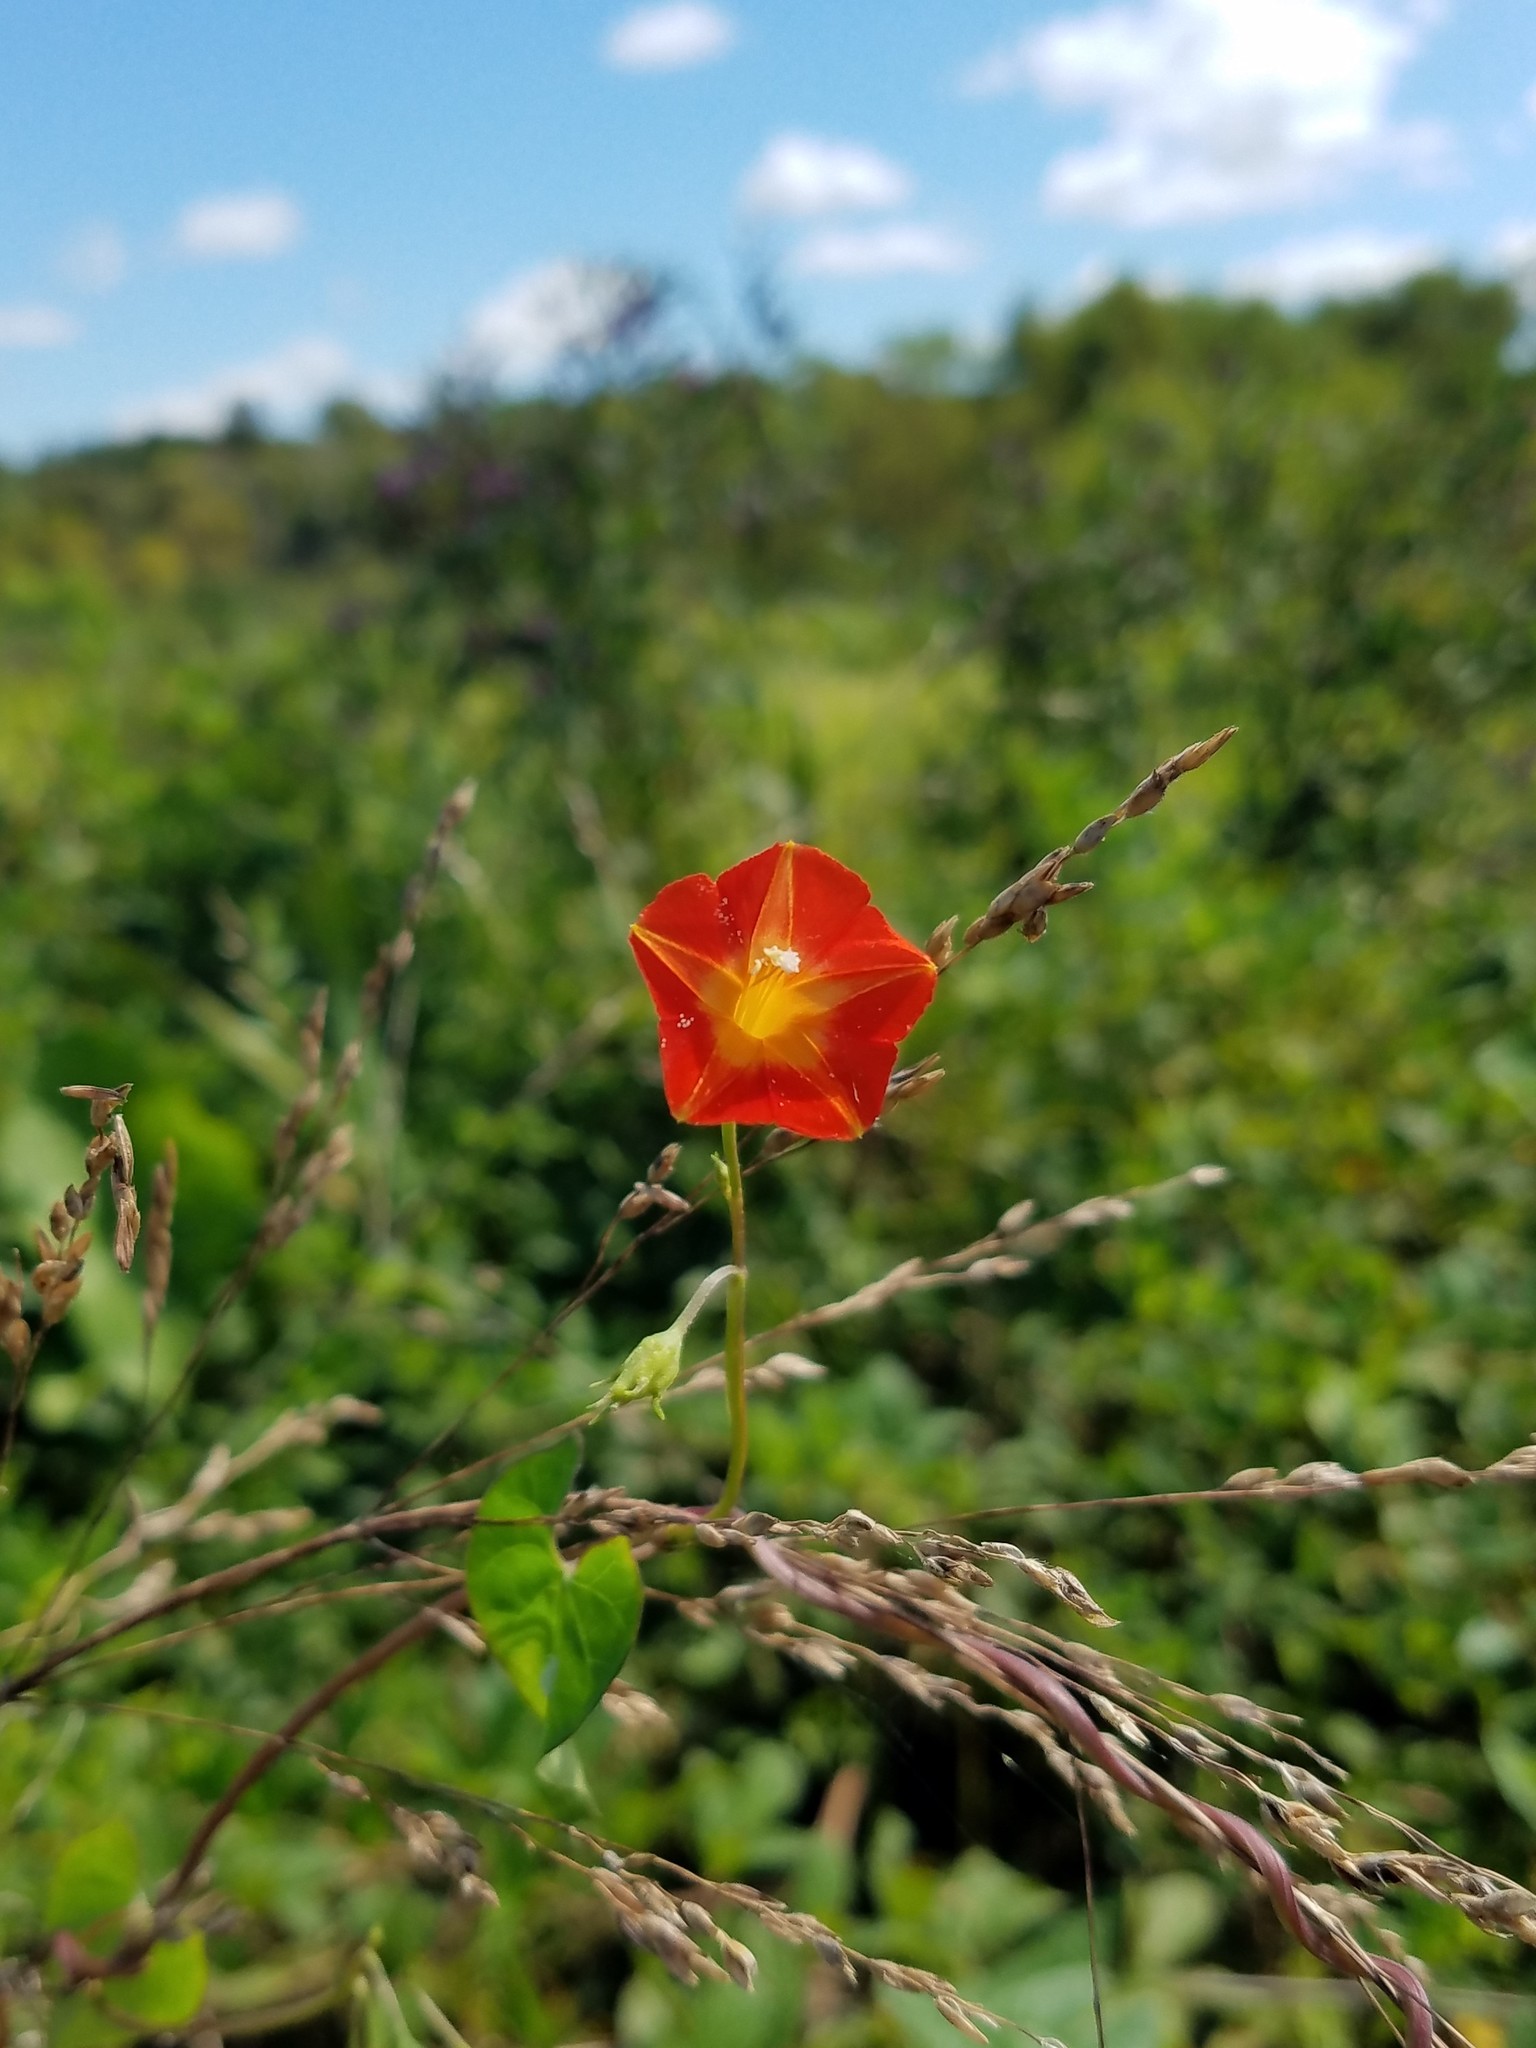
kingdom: Plantae
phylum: Tracheophyta
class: Magnoliopsida
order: Solanales
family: Convolvulaceae
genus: Ipomoea
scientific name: Ipomoea coccinea
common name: Red morning-glory
